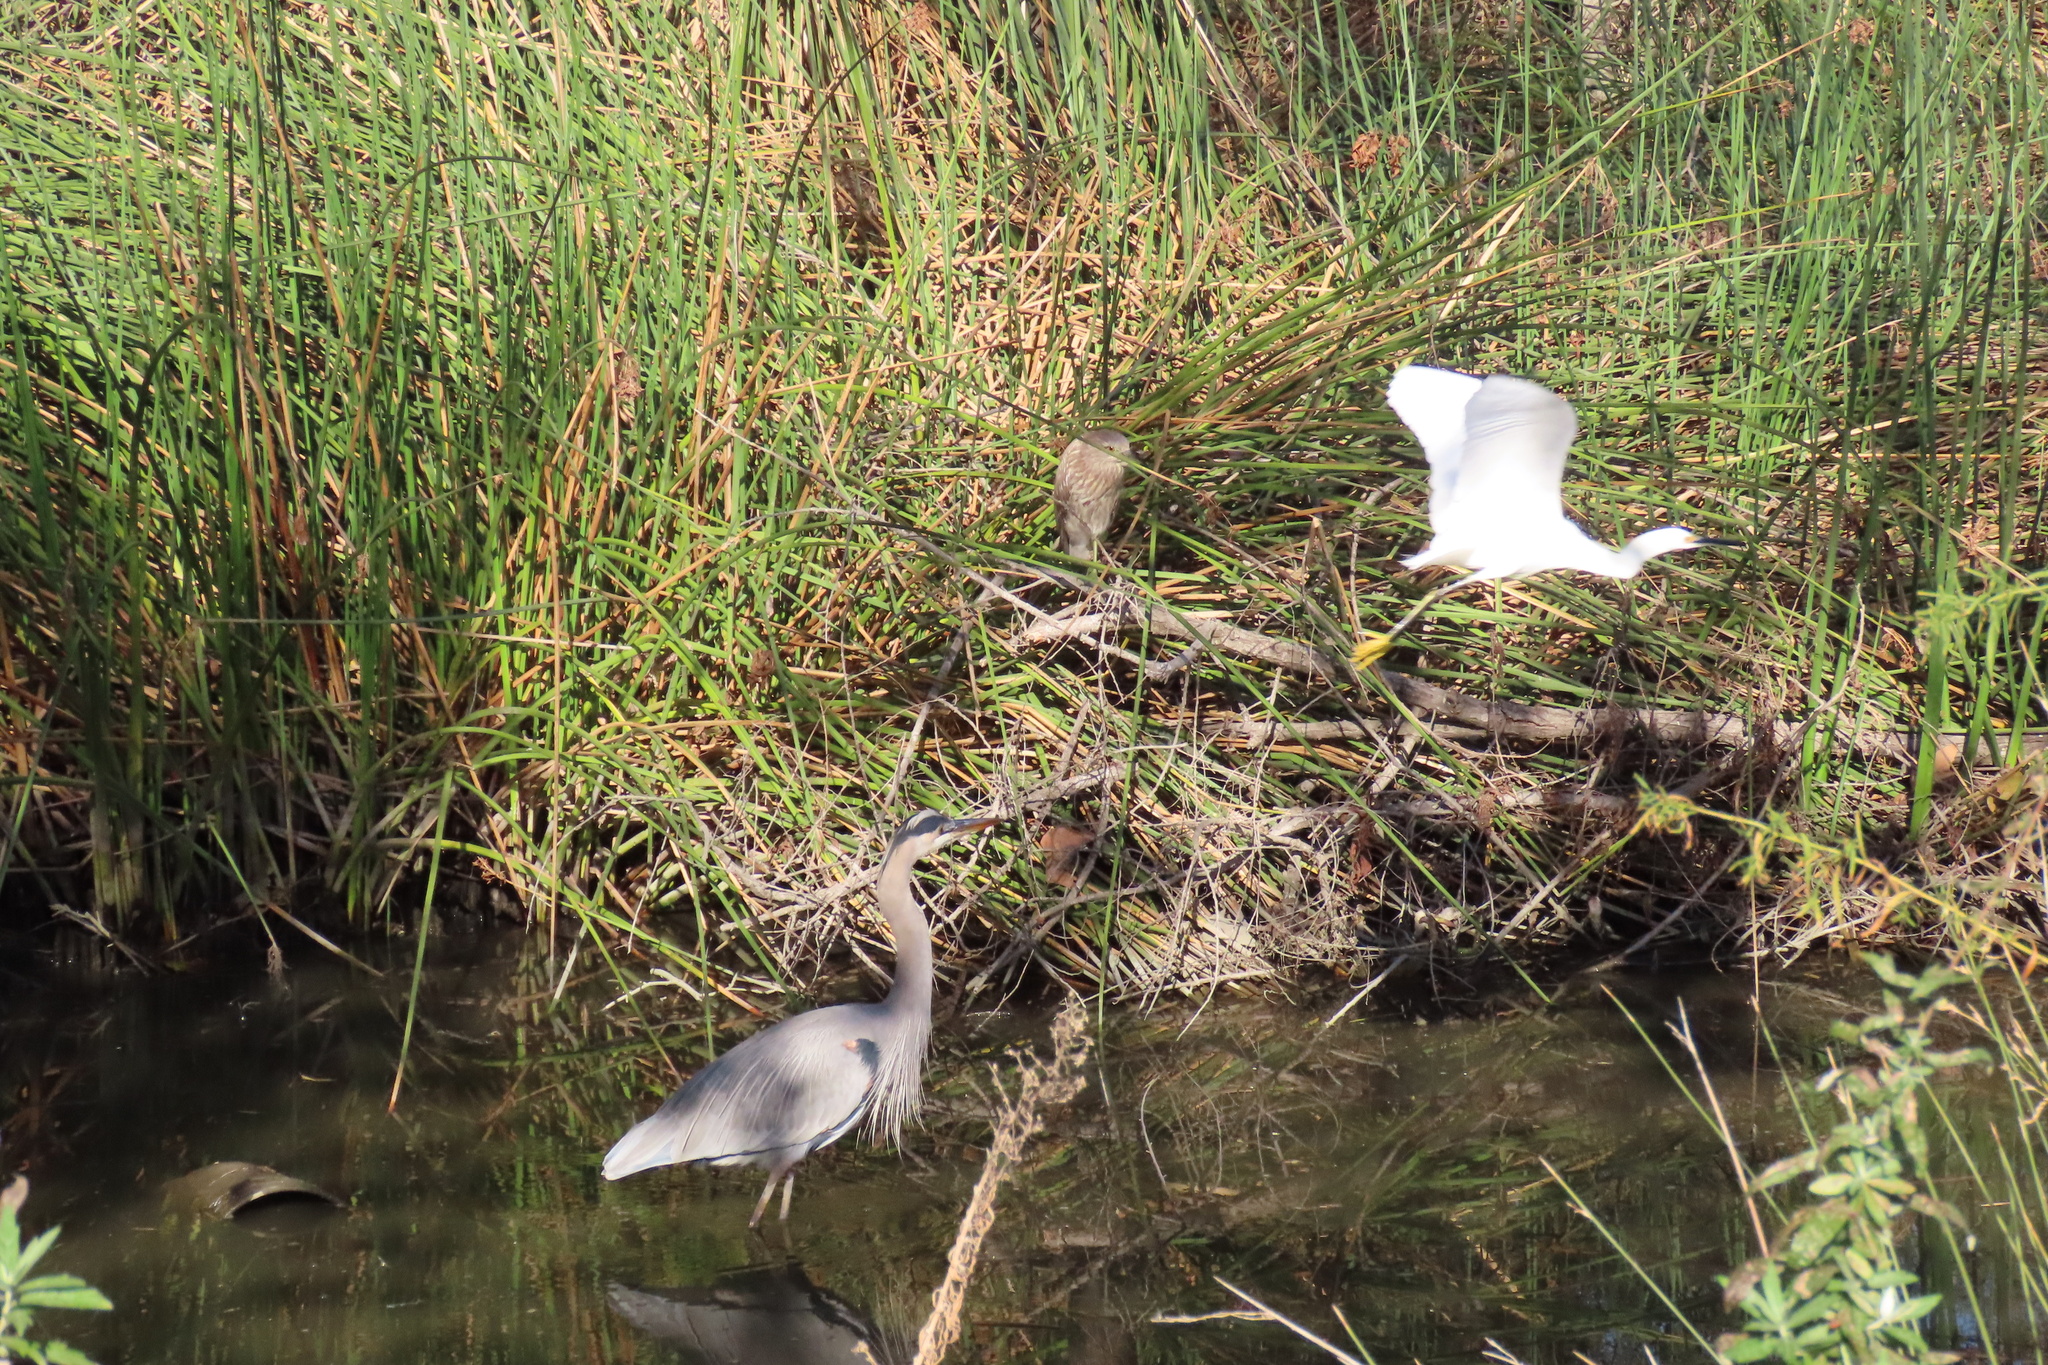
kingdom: Animalia
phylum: Chordata
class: Aves
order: Pelecaniformes
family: Ardeidae
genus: Egretta
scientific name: Egretta thula
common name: Snowy egret
